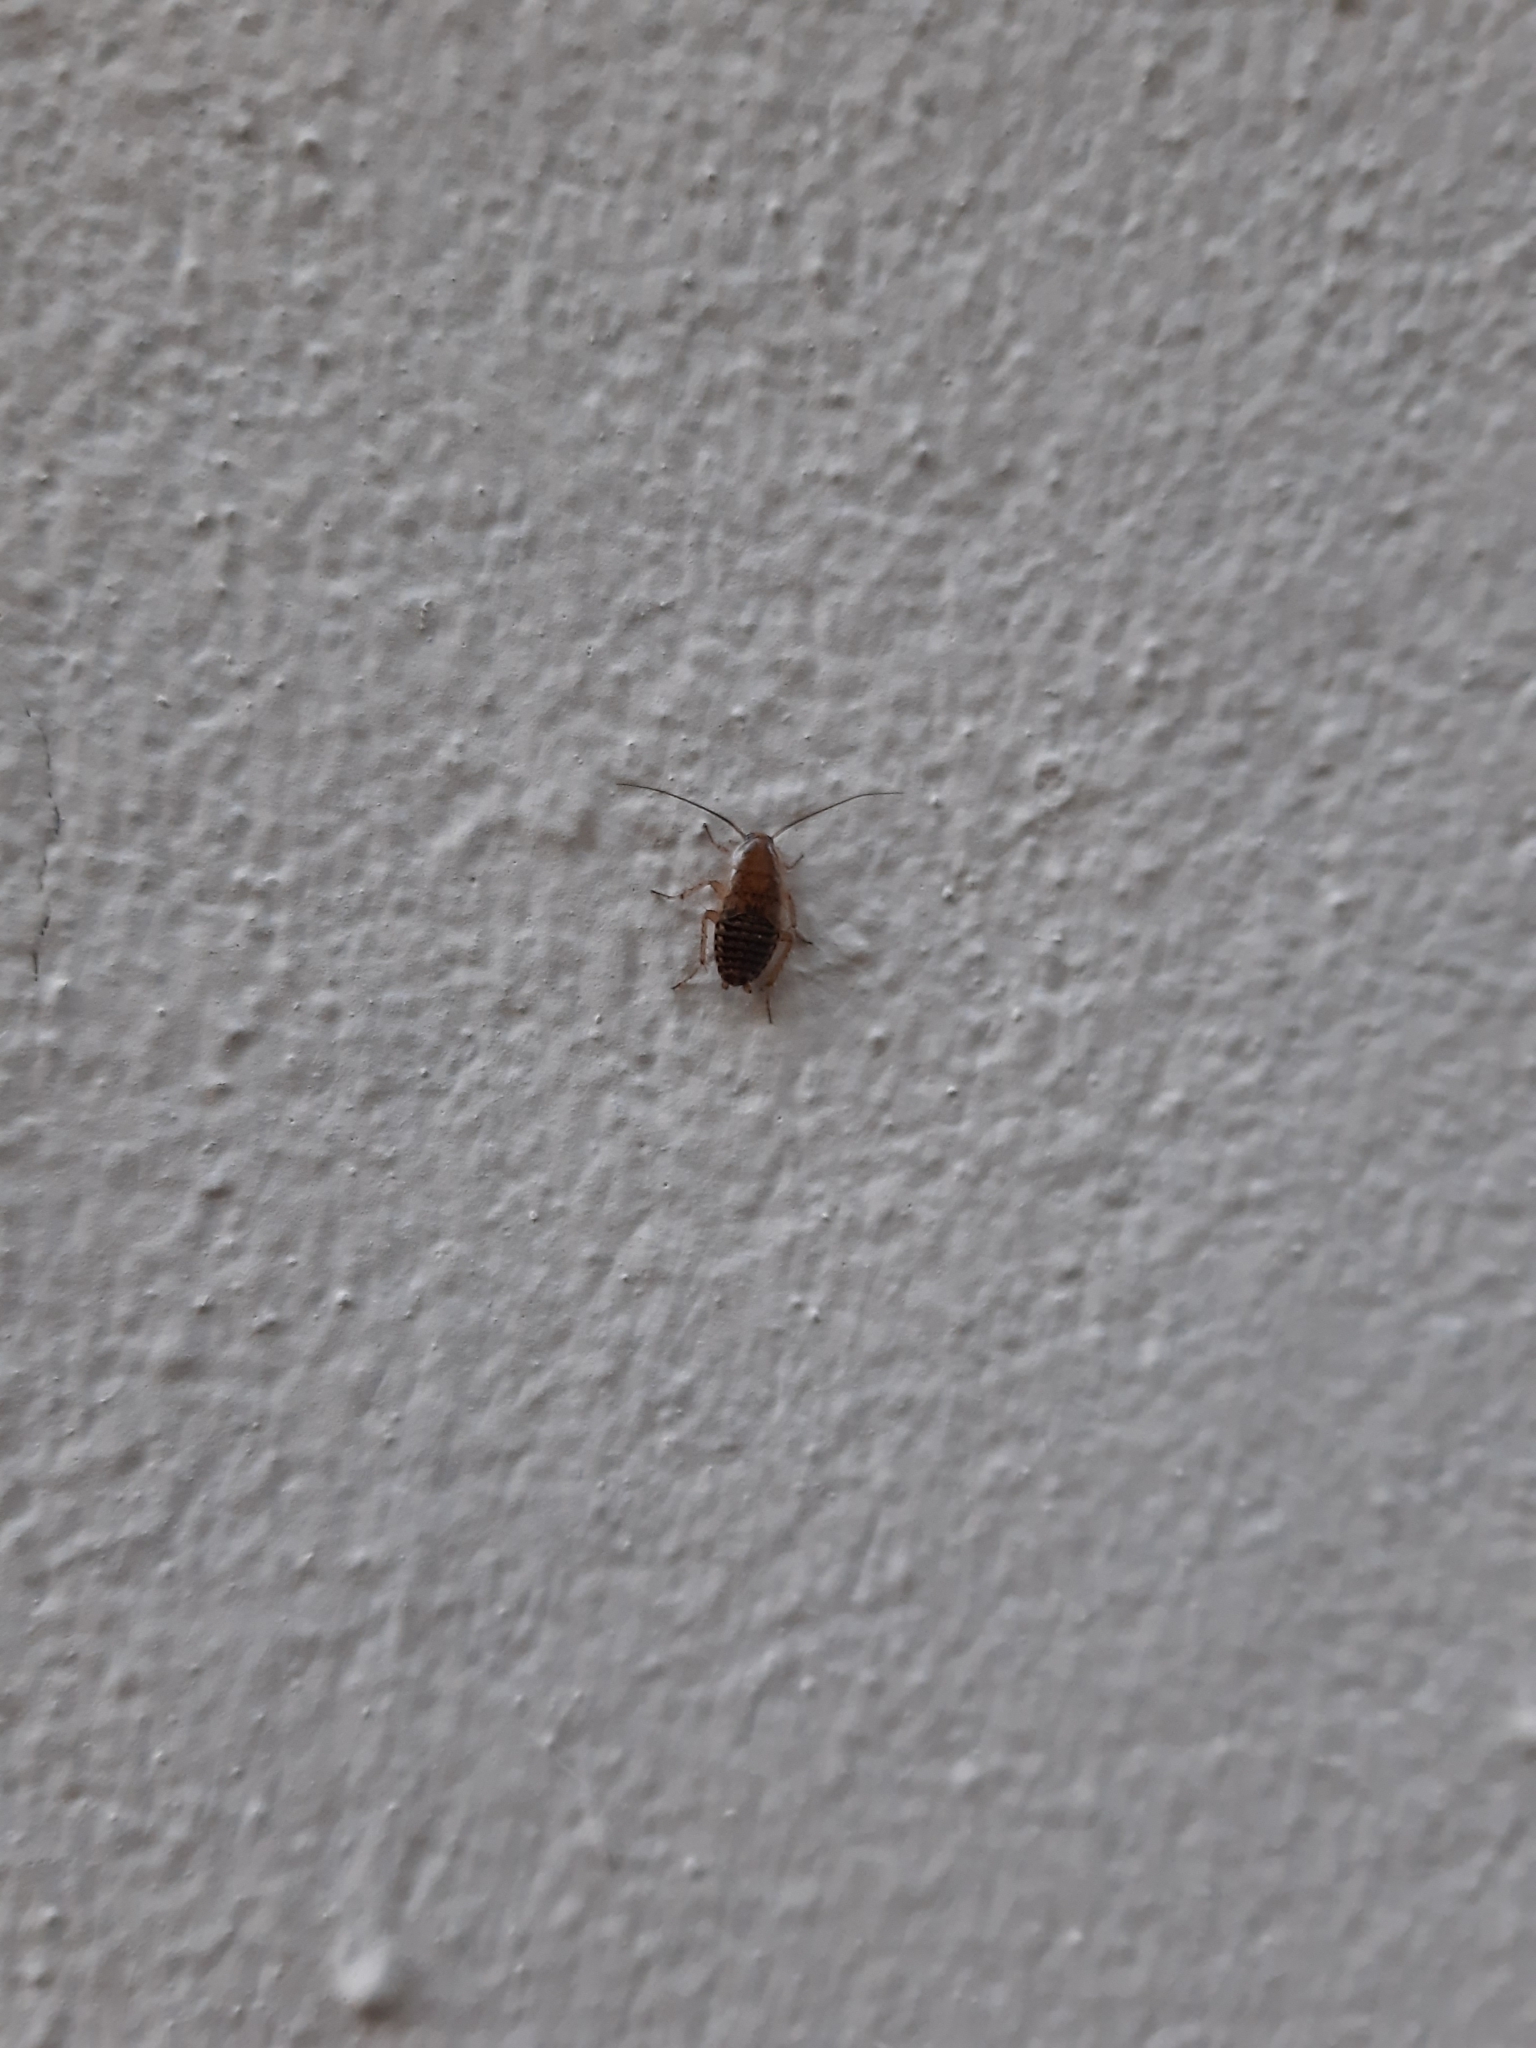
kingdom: Animalia
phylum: Arthropoda
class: Insecta
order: Blattodea
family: Ectobiidae
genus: Ectobius
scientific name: Ectobius vittiventris
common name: Garden cockroach
